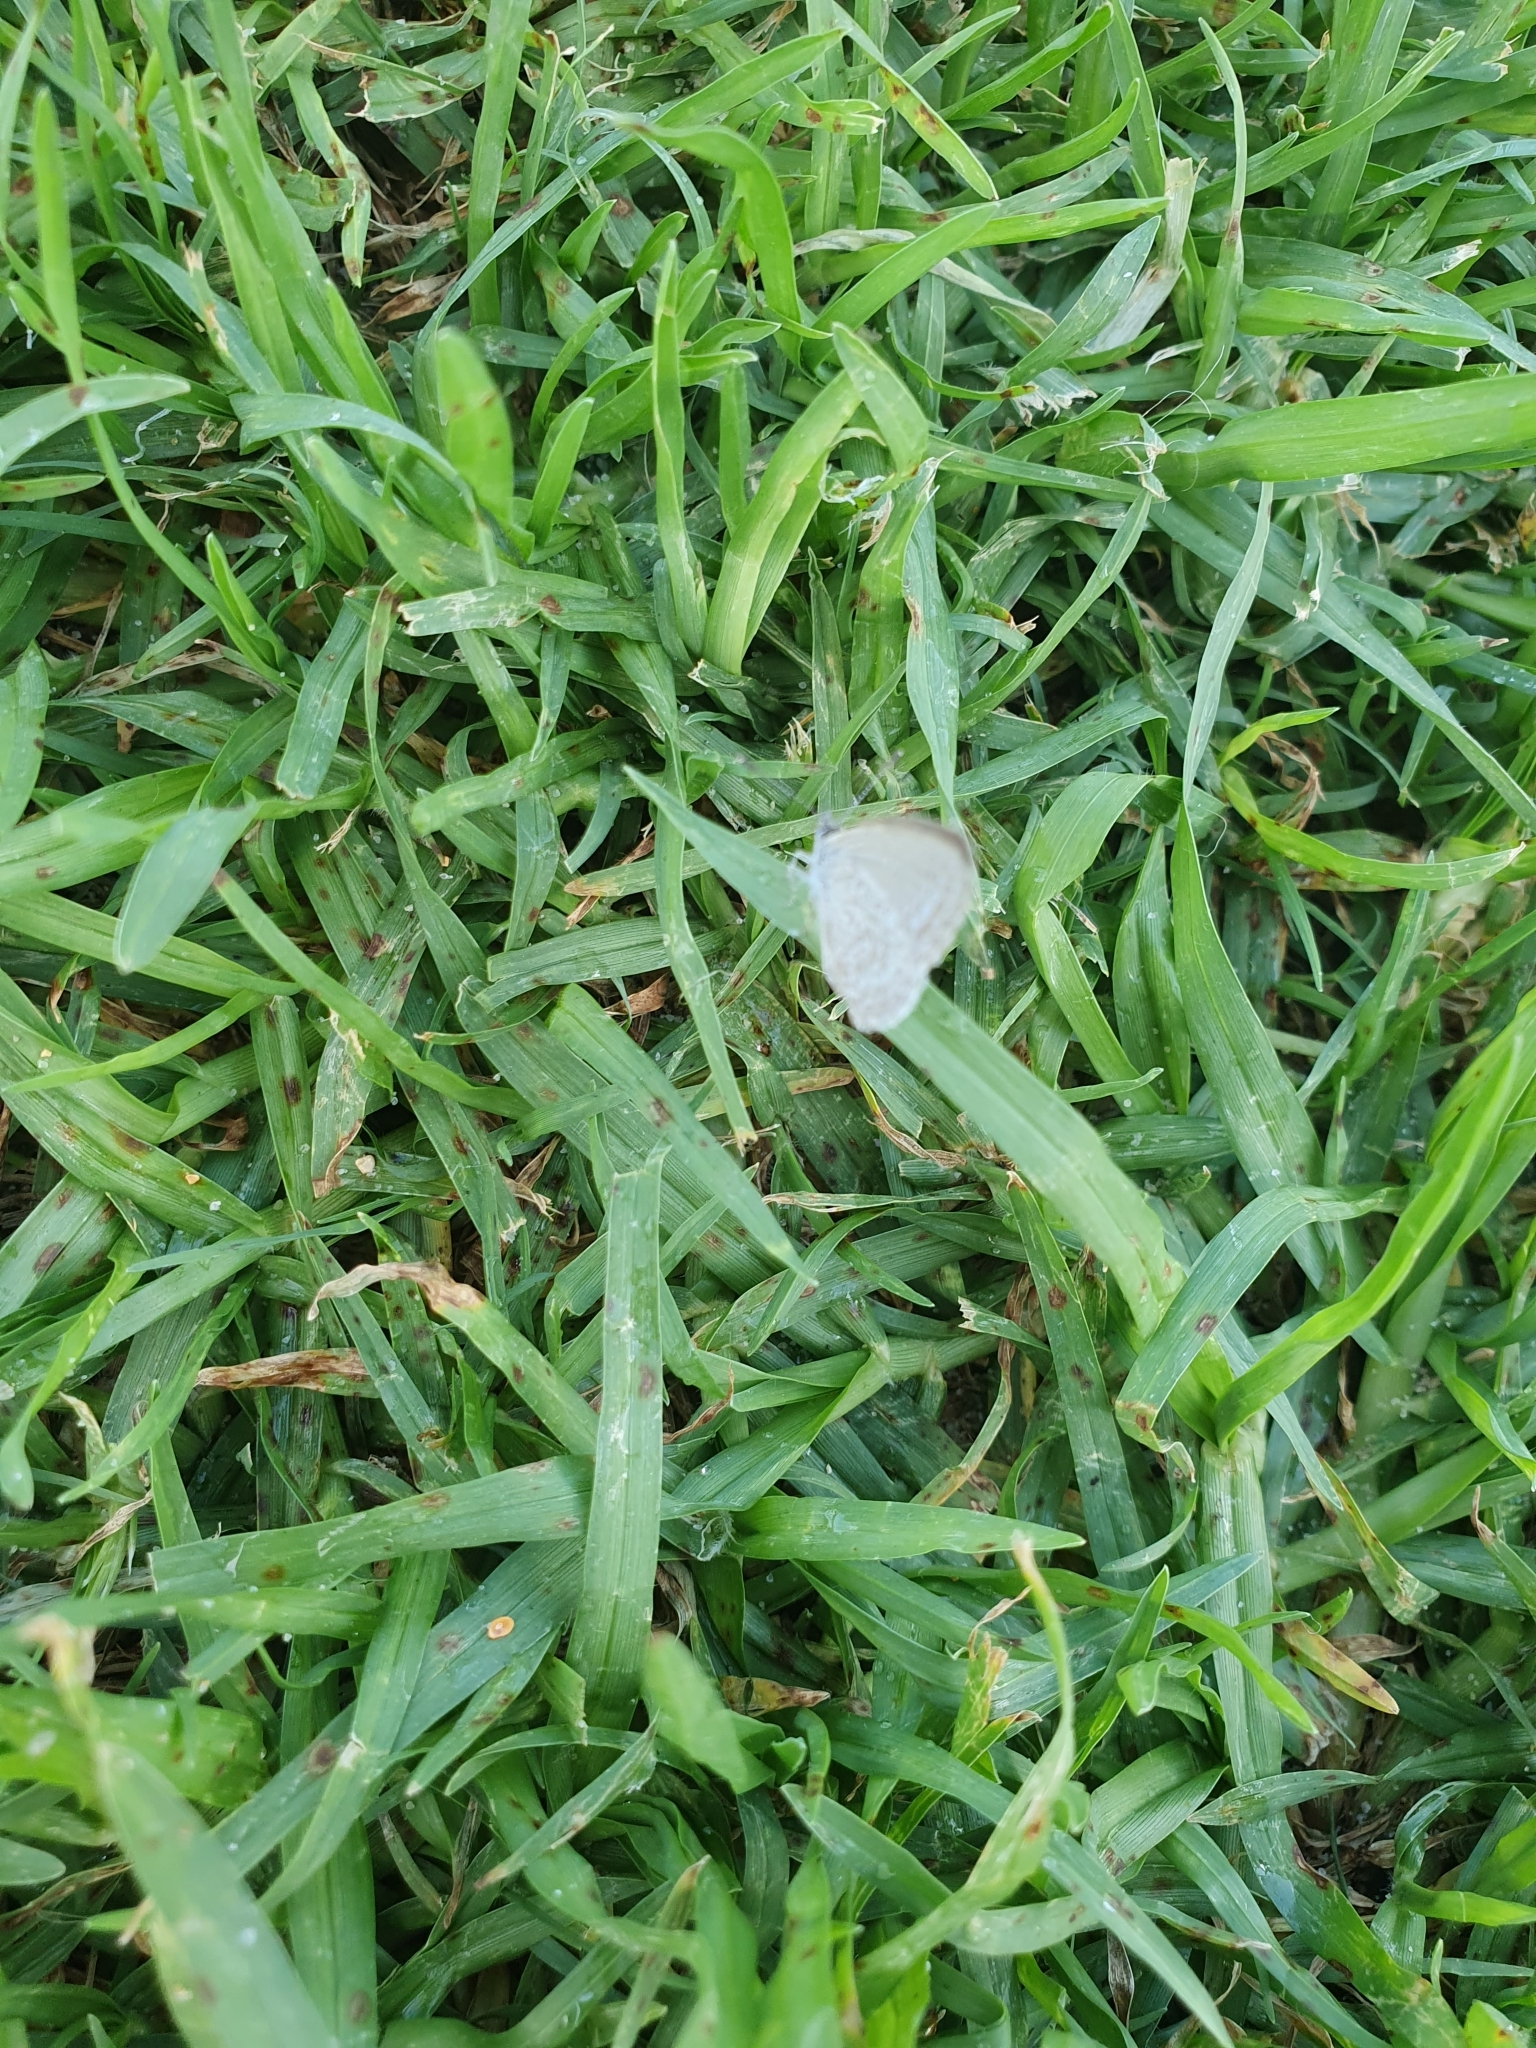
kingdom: Animalia
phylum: Arthropoda
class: Insecta
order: Lepidoptera
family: Lycaenidae
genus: Zizina
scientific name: Zizina labradus
